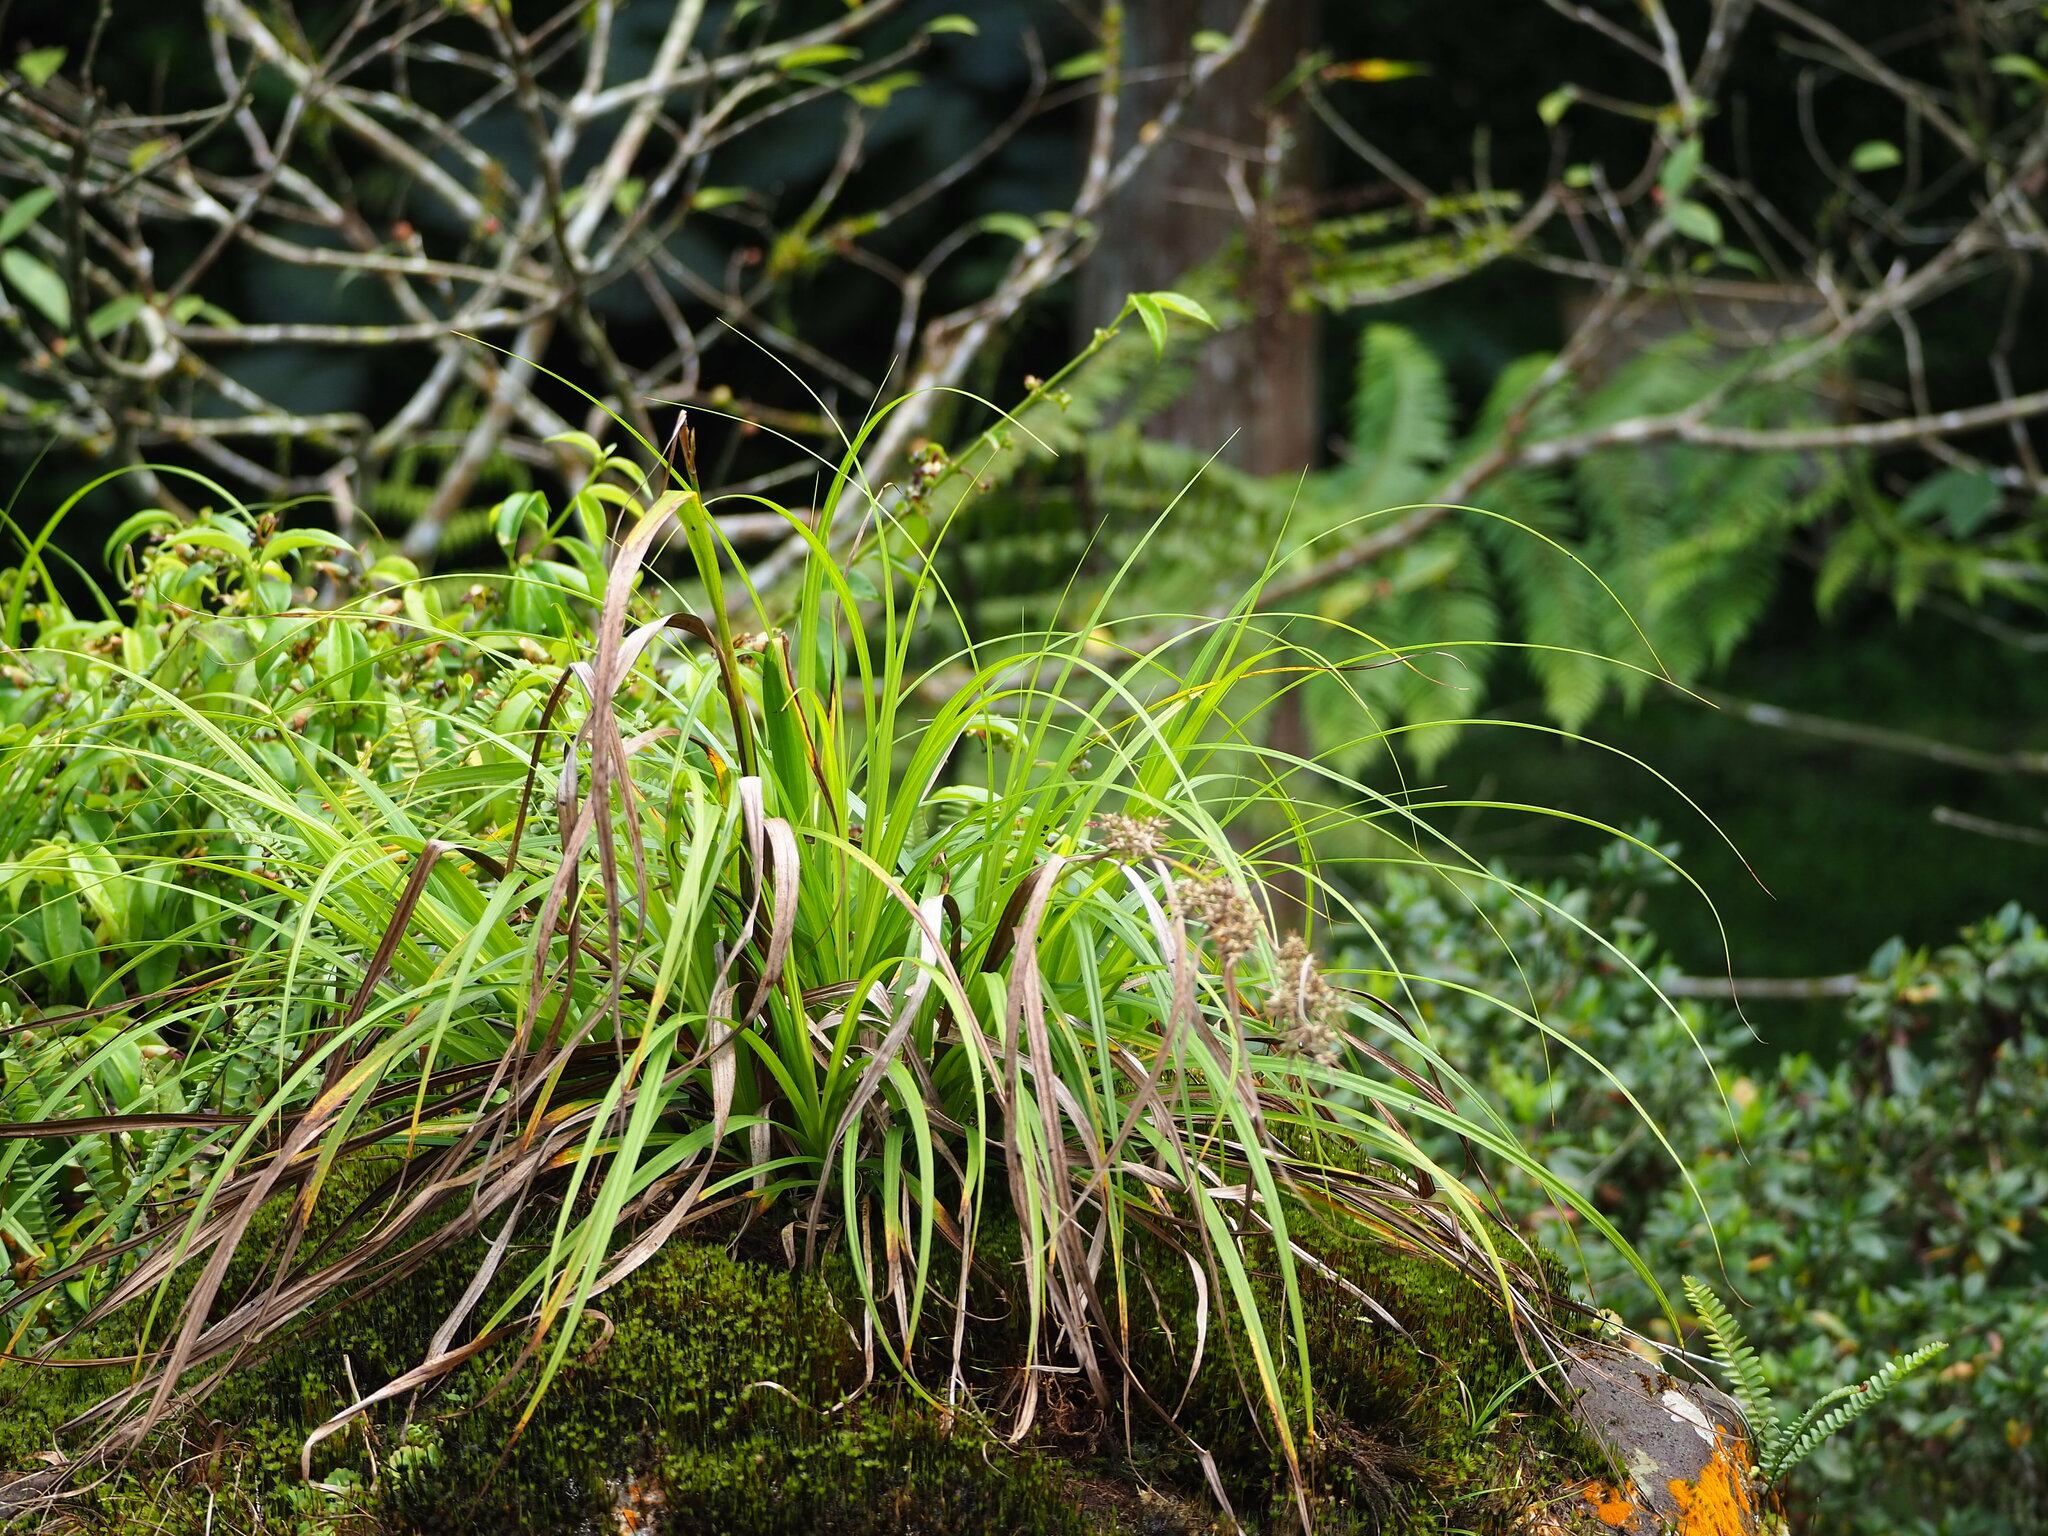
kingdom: Plantae
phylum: Tracheophyta
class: Liliopsida
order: Poales
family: Cyperaceae
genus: Carex
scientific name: Carex cruciata
